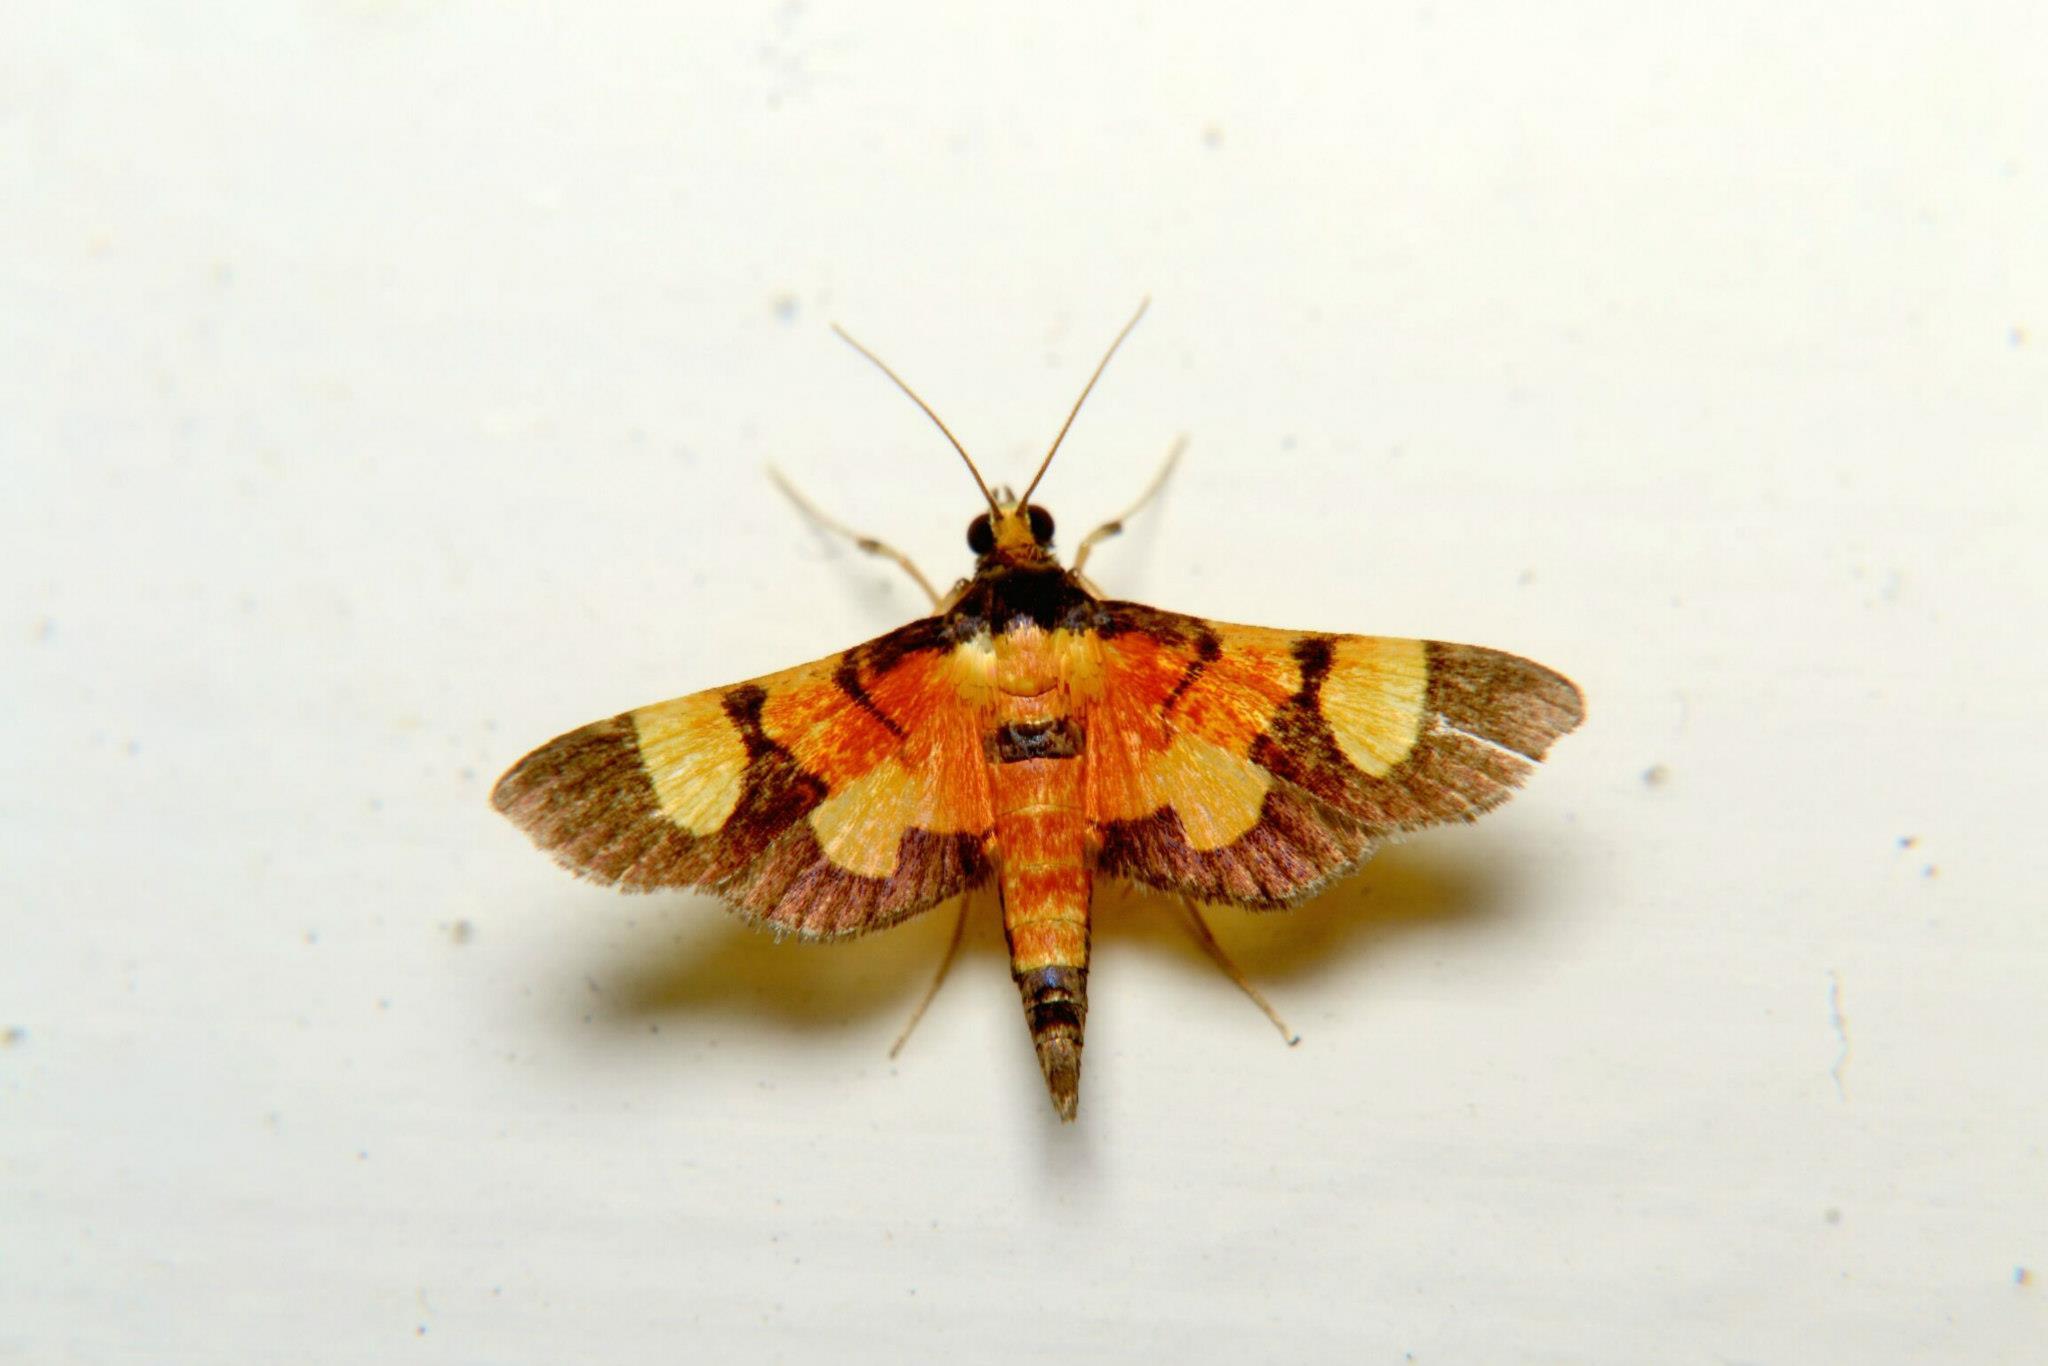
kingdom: Animalia
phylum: Arthropoda
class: Insecta
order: Lepidoptera
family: Crambidae
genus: Aethaloessa
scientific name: Aethaloessa calidalis
